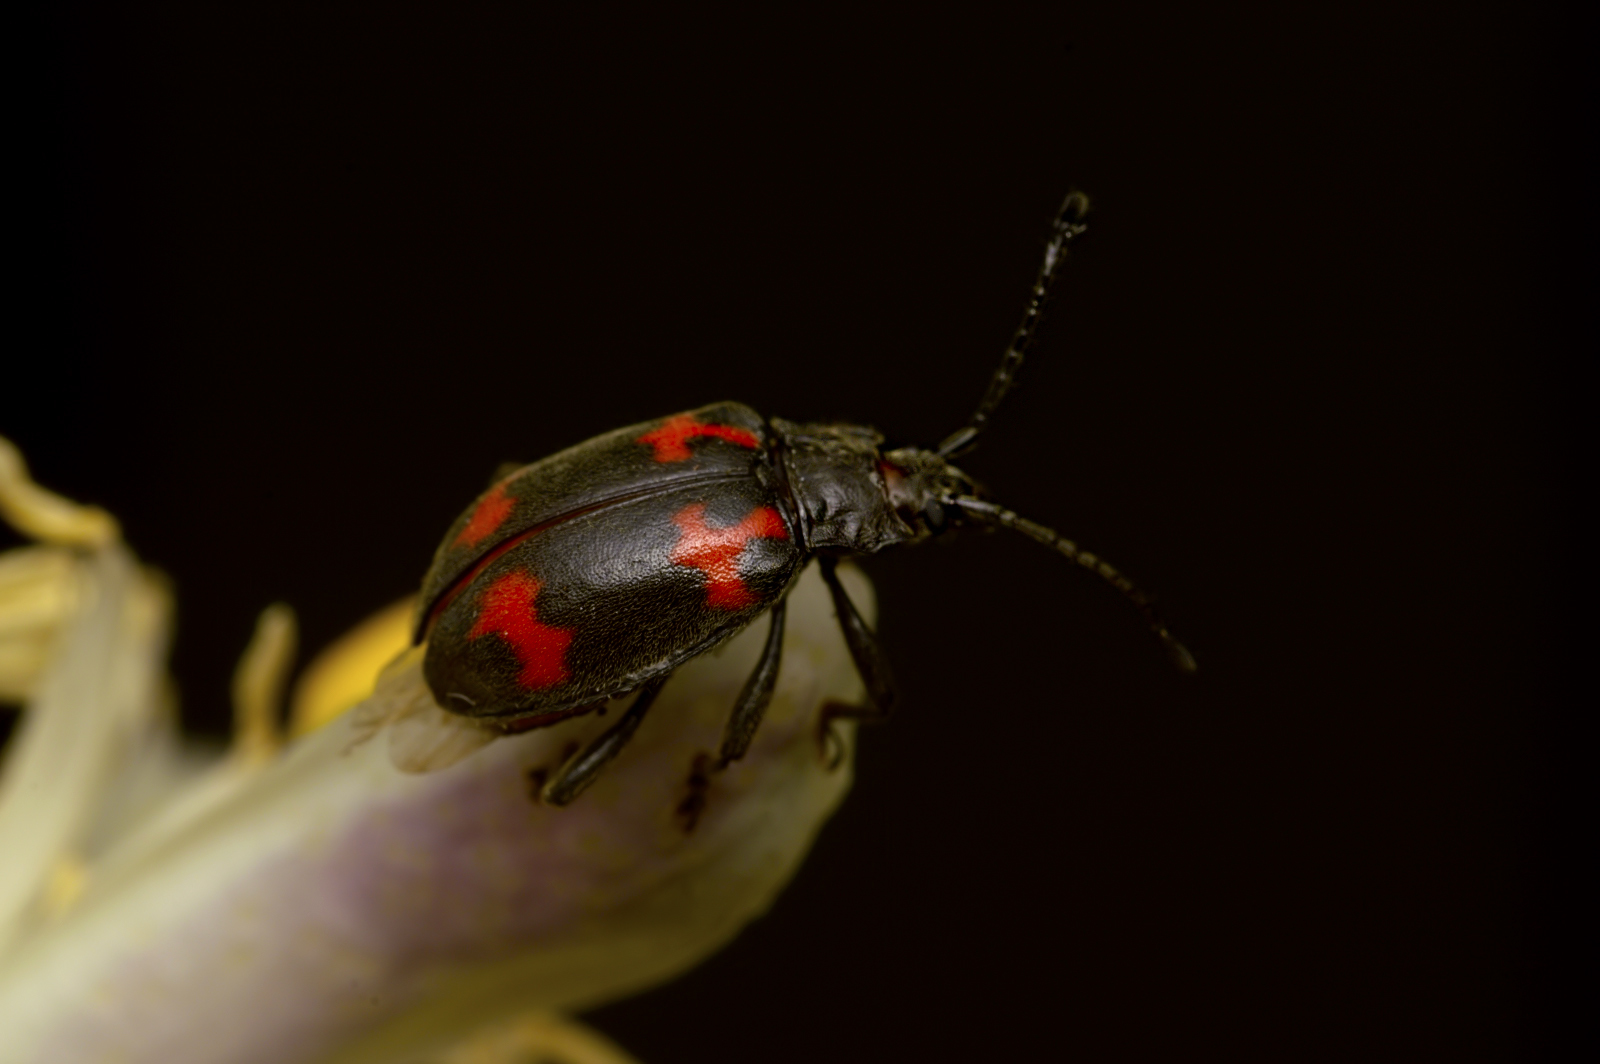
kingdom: Animalia
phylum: Arthropoda
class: Insecta
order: Coleoptera
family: Endomychidae
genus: Parindalmus
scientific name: Parindalmus
